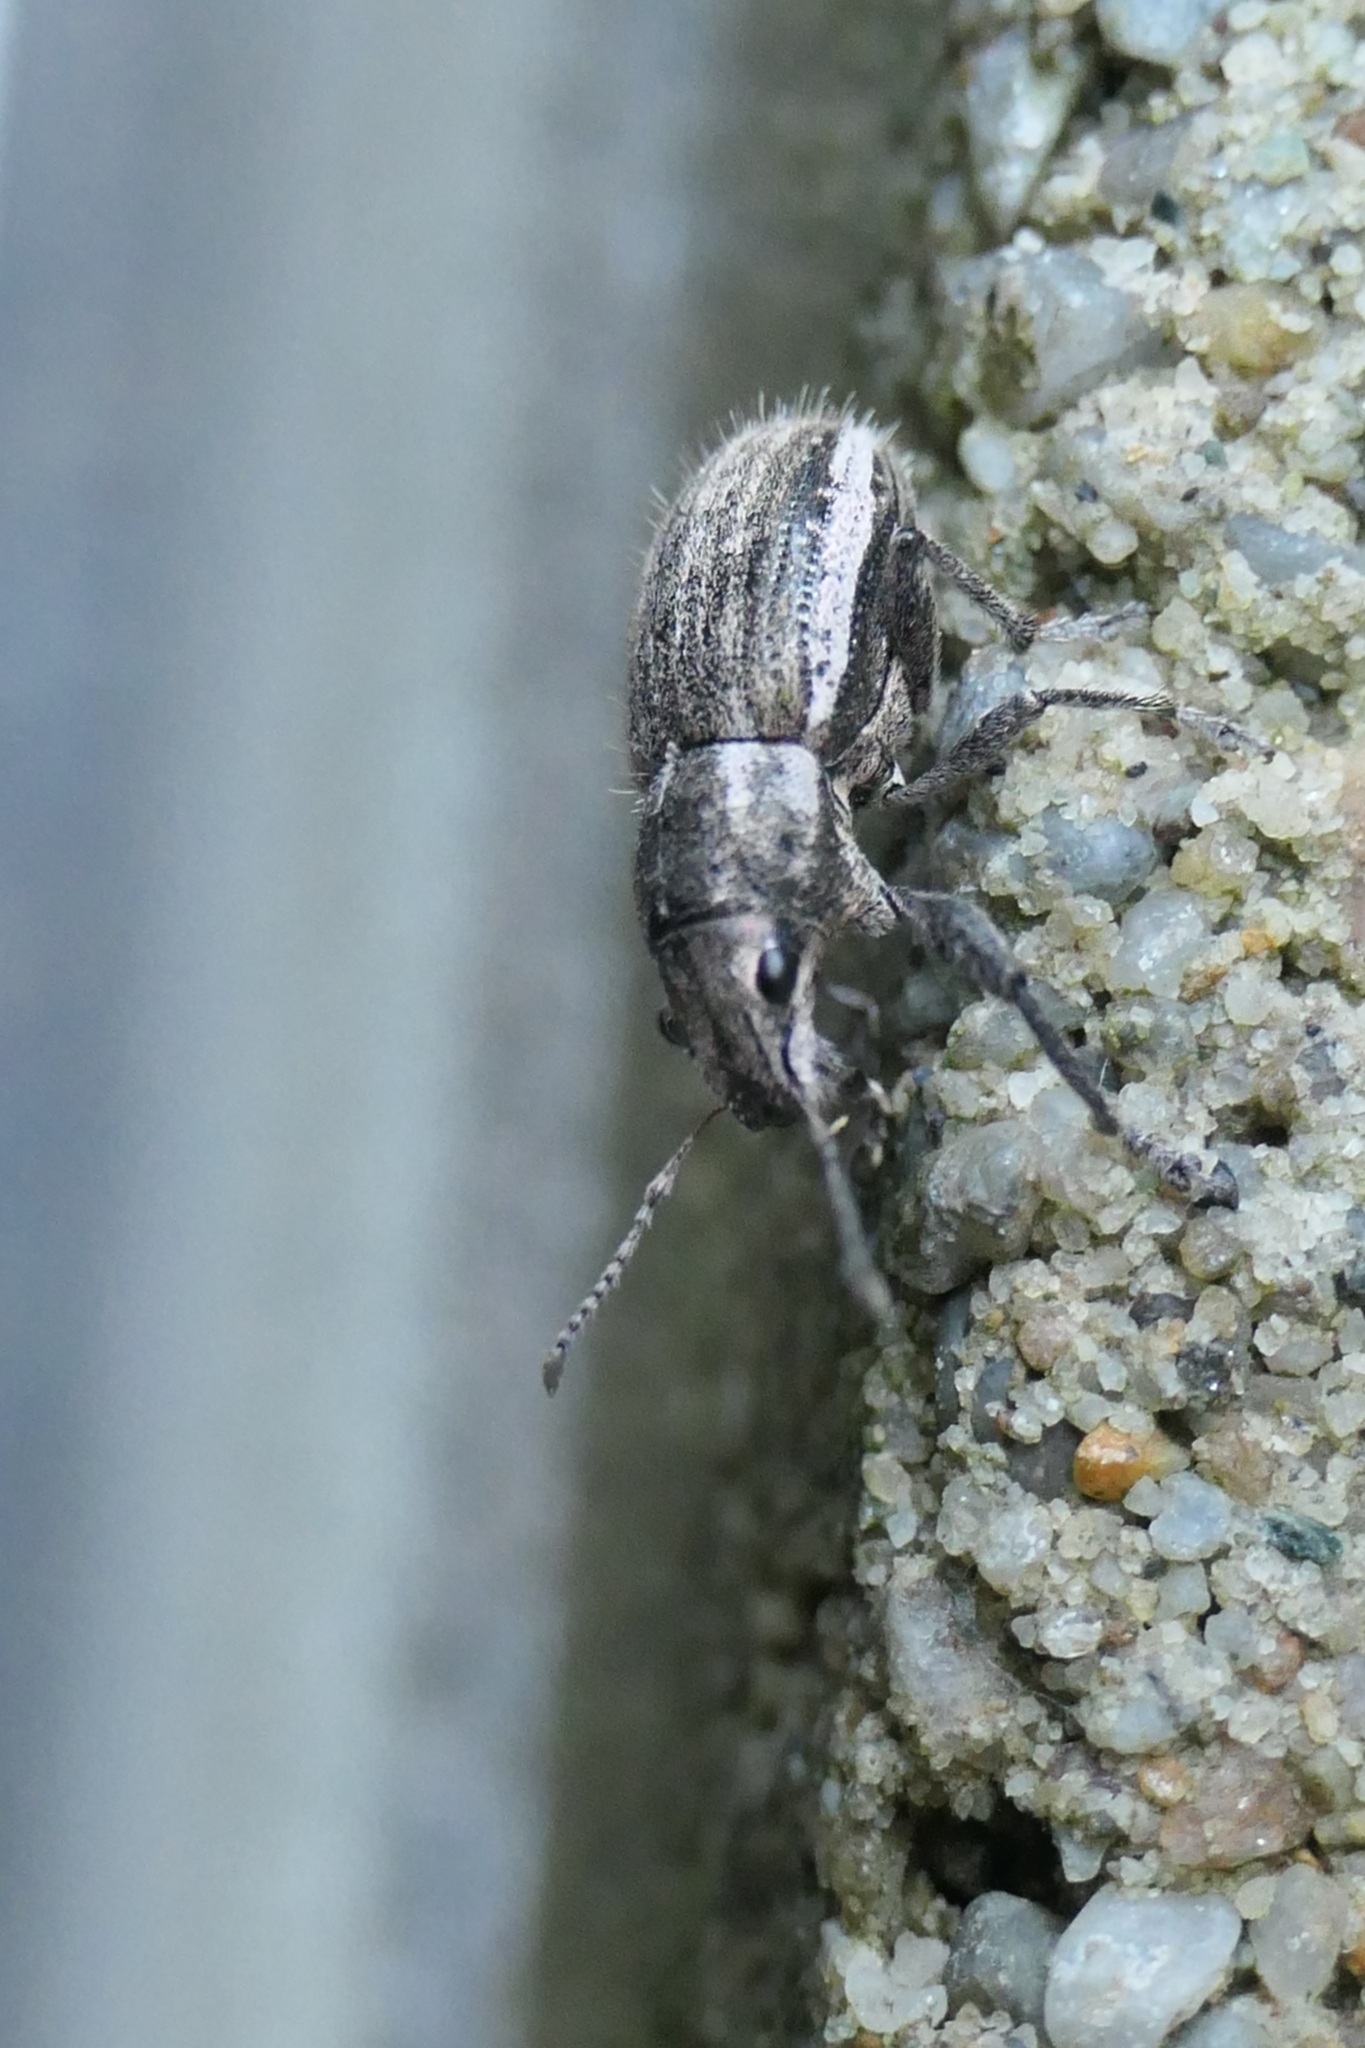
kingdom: Animalia
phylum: Arthropoda
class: Insecta
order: Coleoptera
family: Curculionidae
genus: Naupactus
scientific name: Naupactus leucoloma
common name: Whitefringed beetle
